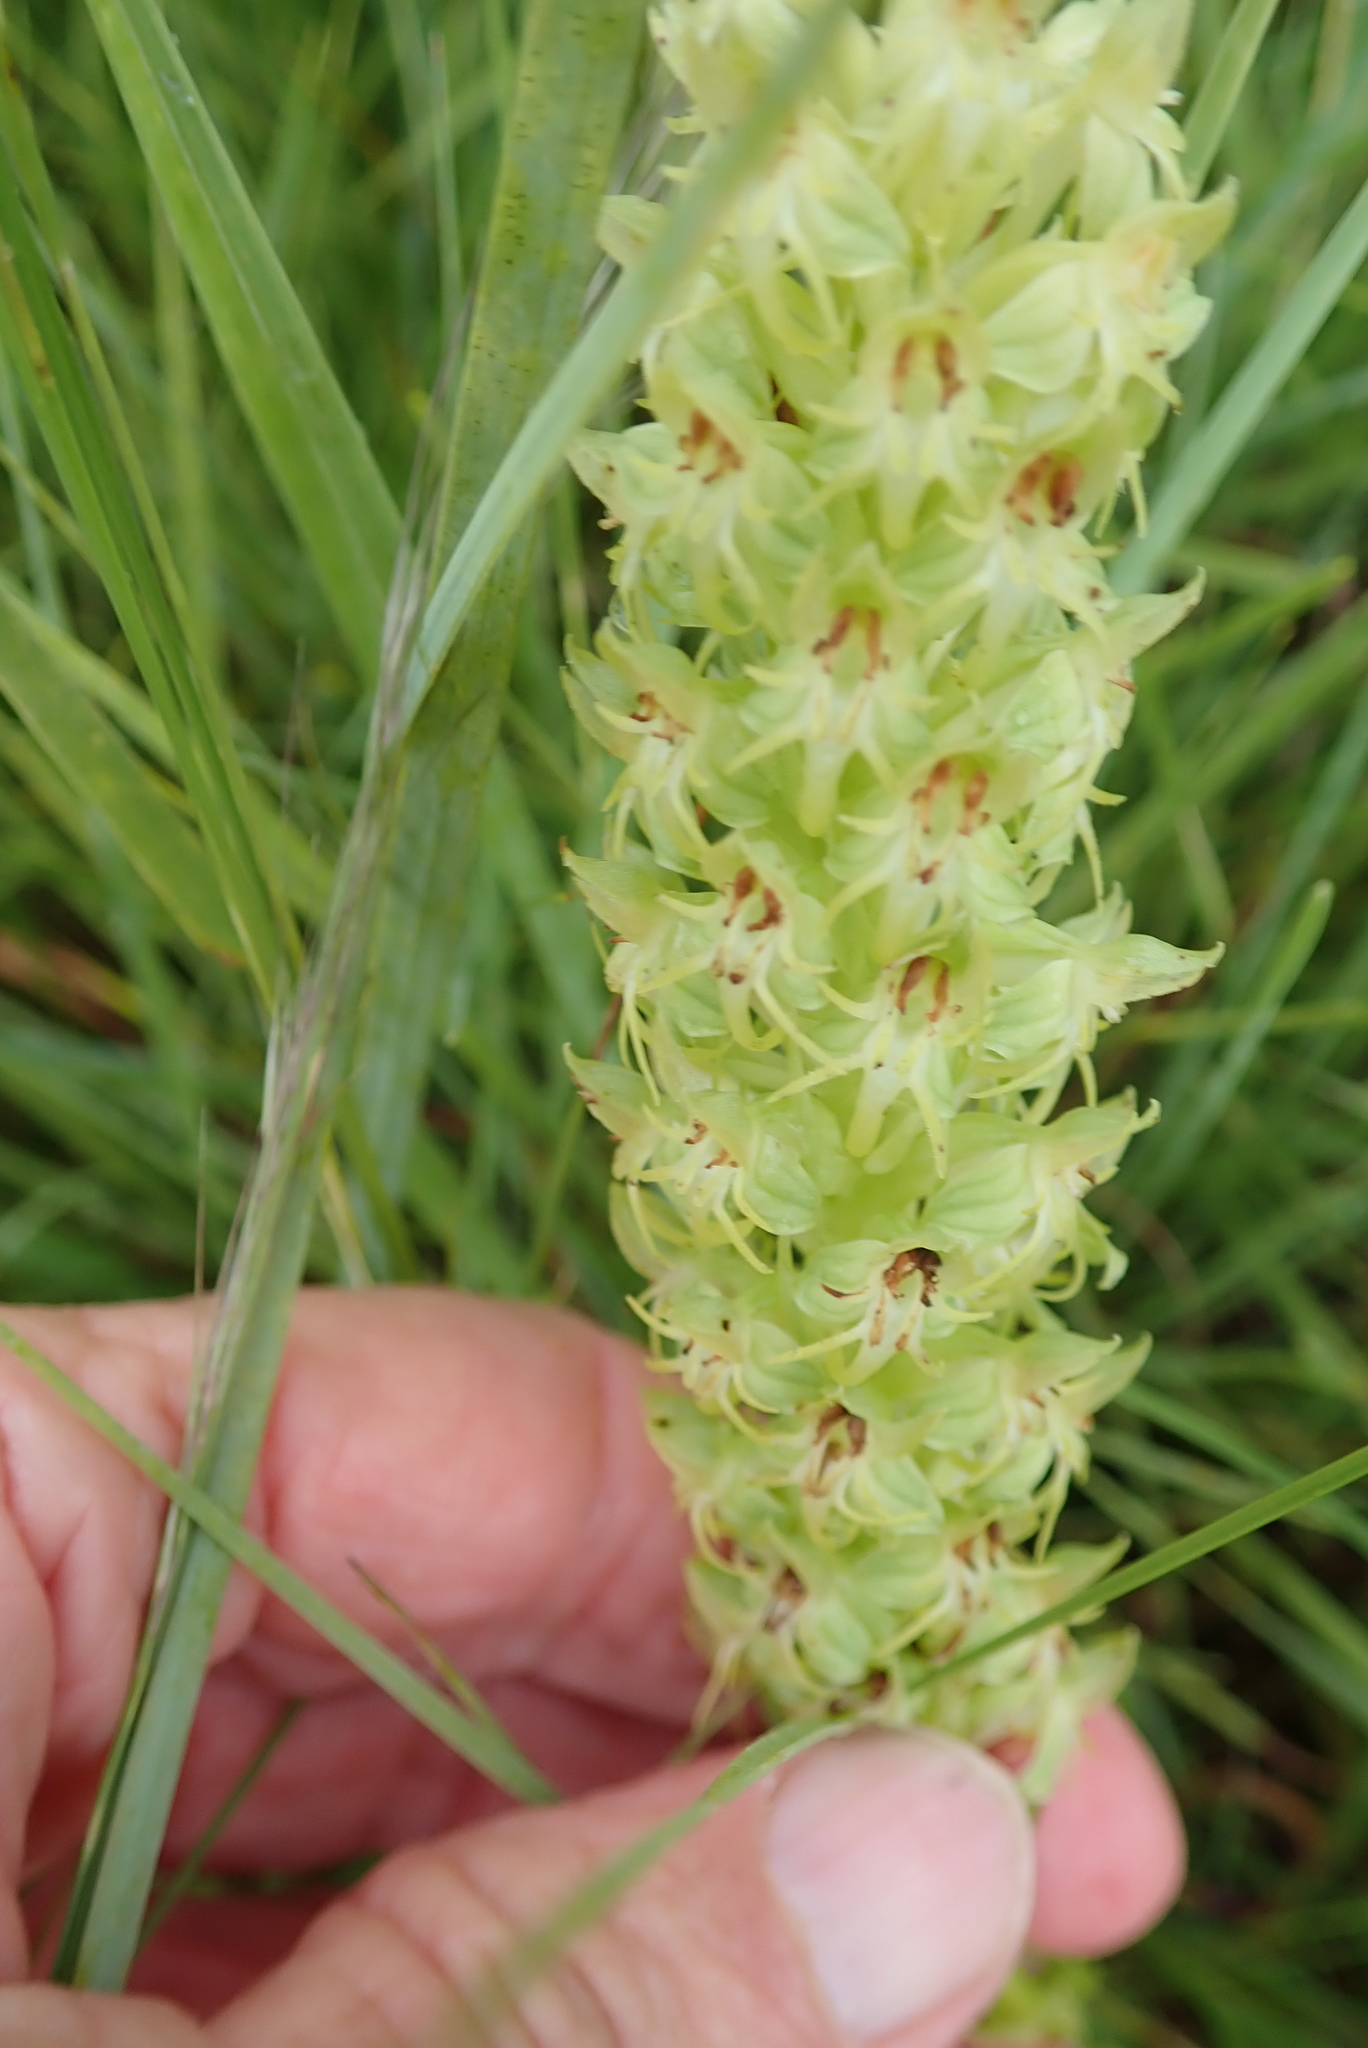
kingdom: Plantae
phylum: Tracheophyta
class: Liliopsida
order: Asparagales
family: Orchidaceae
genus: Habenaria
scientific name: Habenaria dregeana
